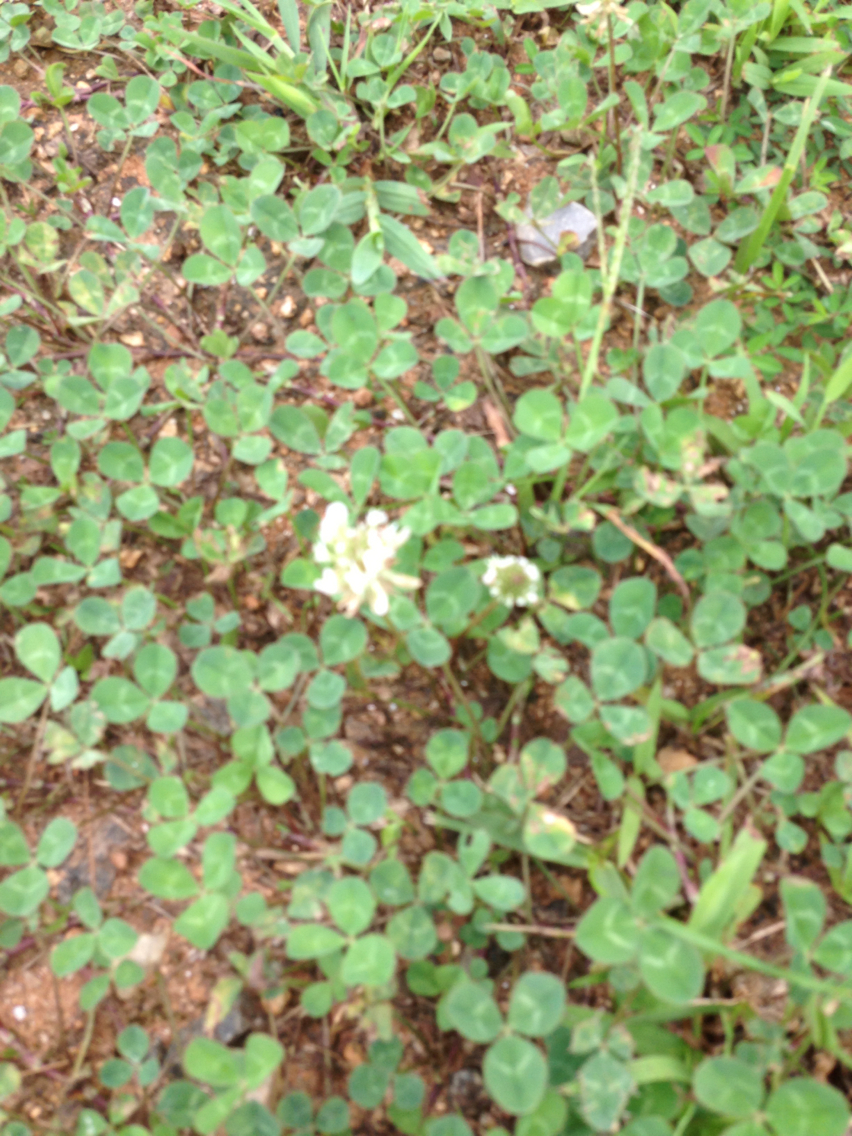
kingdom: Plantae
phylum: Tracheophyta
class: Magnoliopsida
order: Fabales
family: Fabaceae
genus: Trifolium
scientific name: Trifolium repens
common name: White clover
